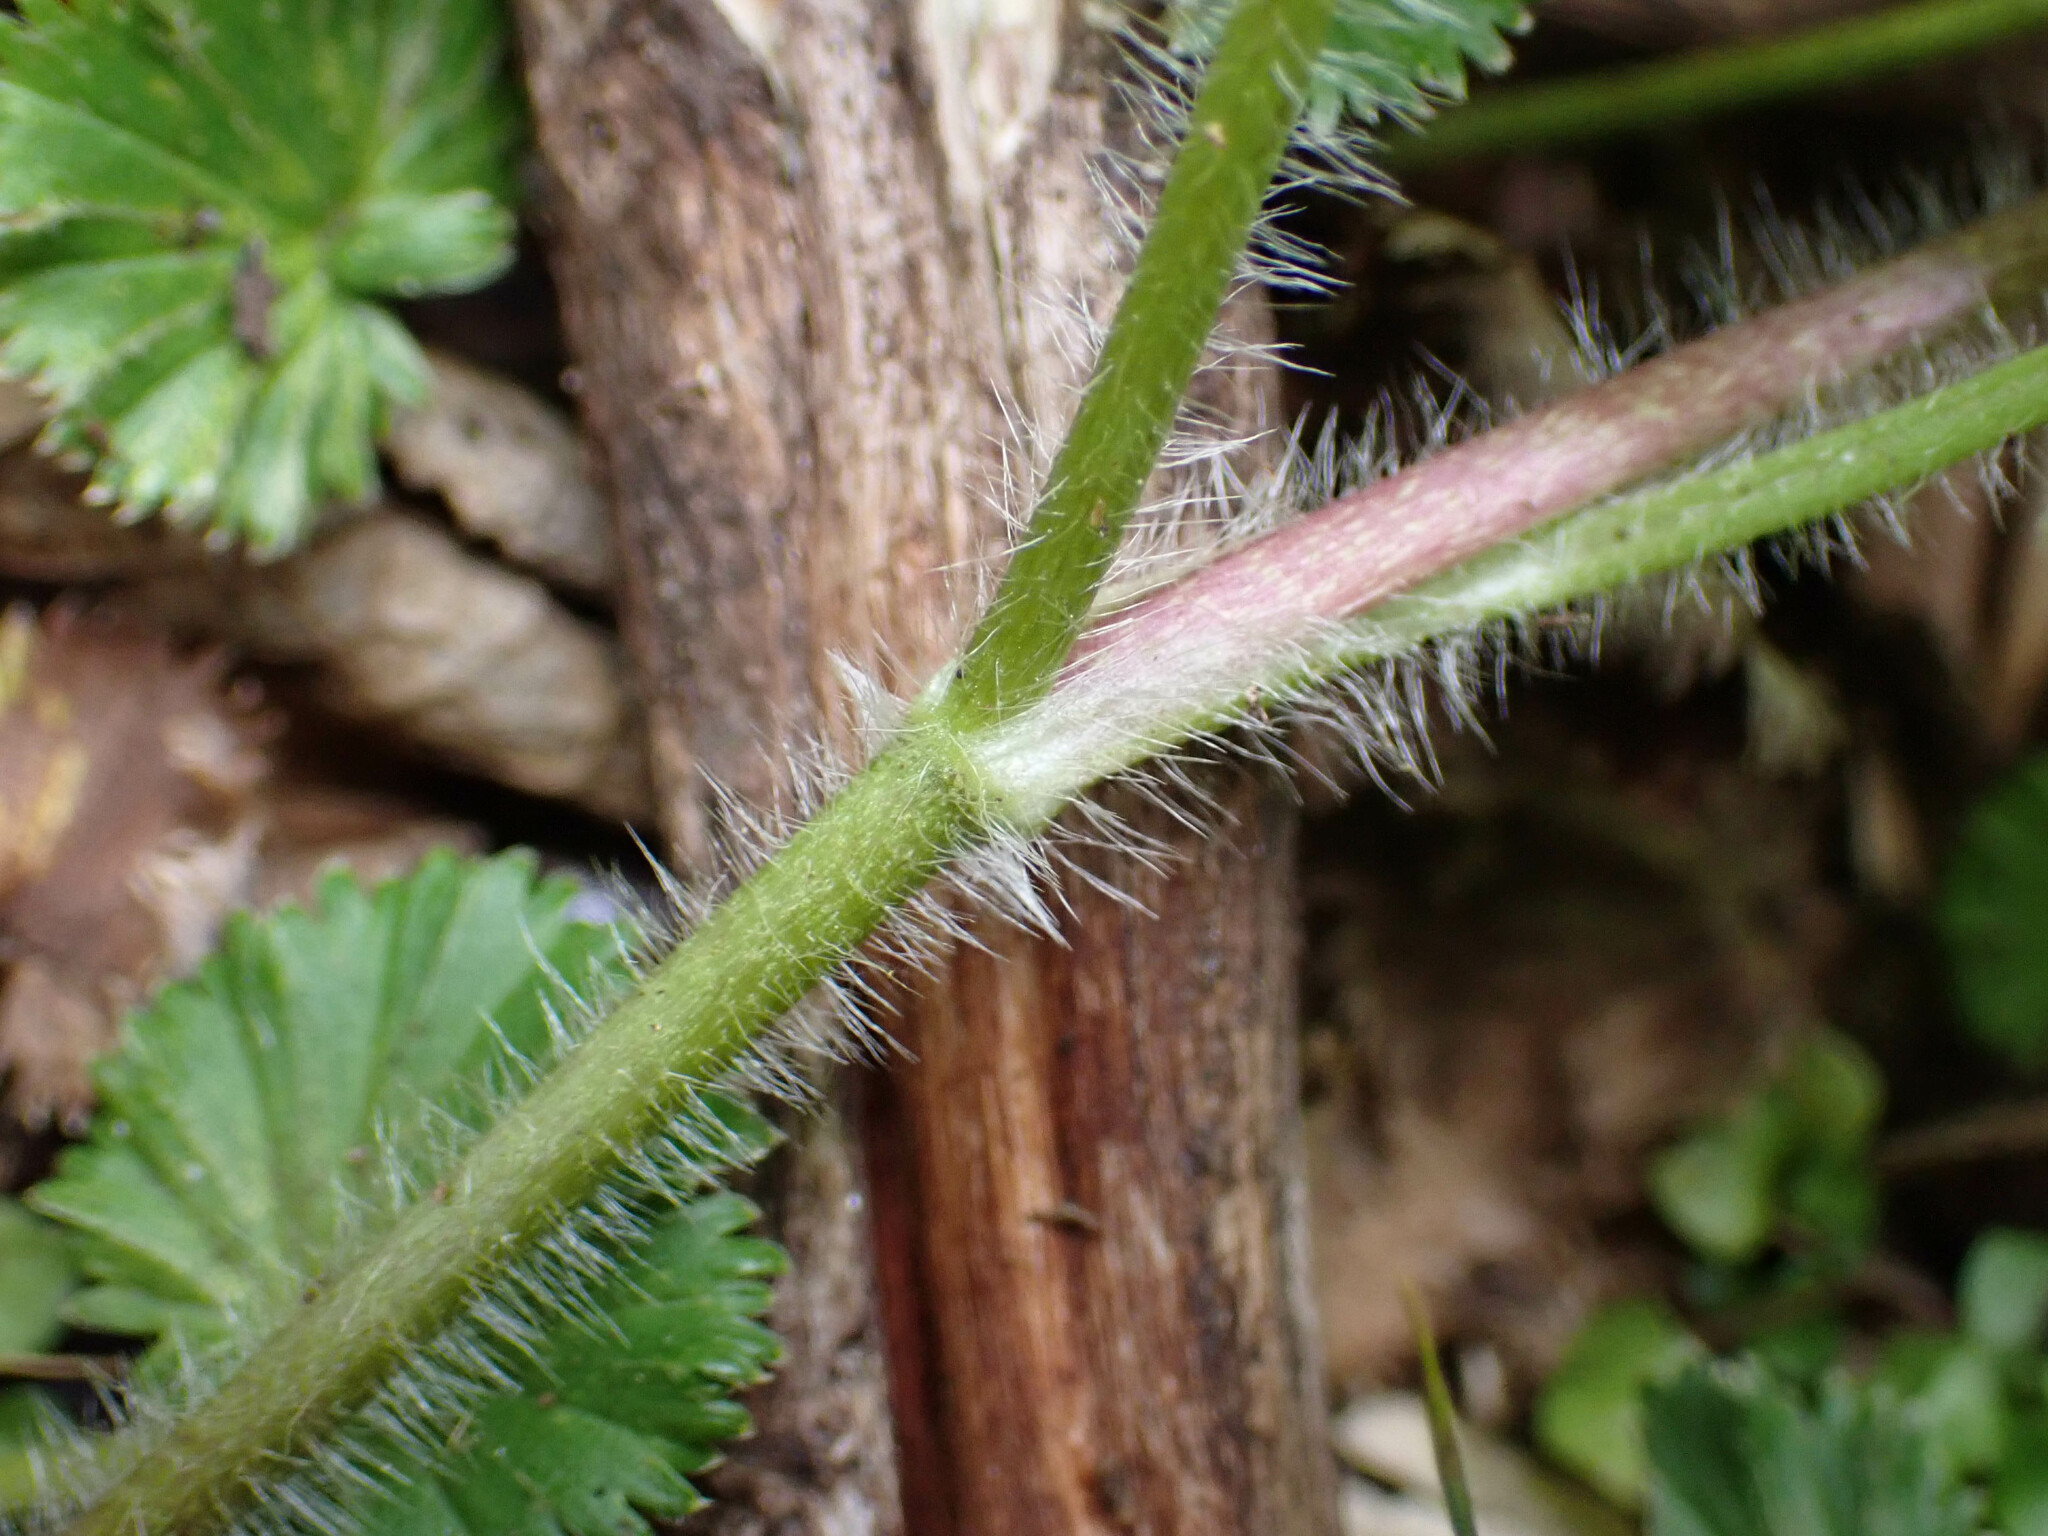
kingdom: Plantae
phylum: Tracheophyta
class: Magnoliopsida
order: Ranunculales
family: Ranunculaceae
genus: Ranunculus
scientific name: Ranunculus geranioides
